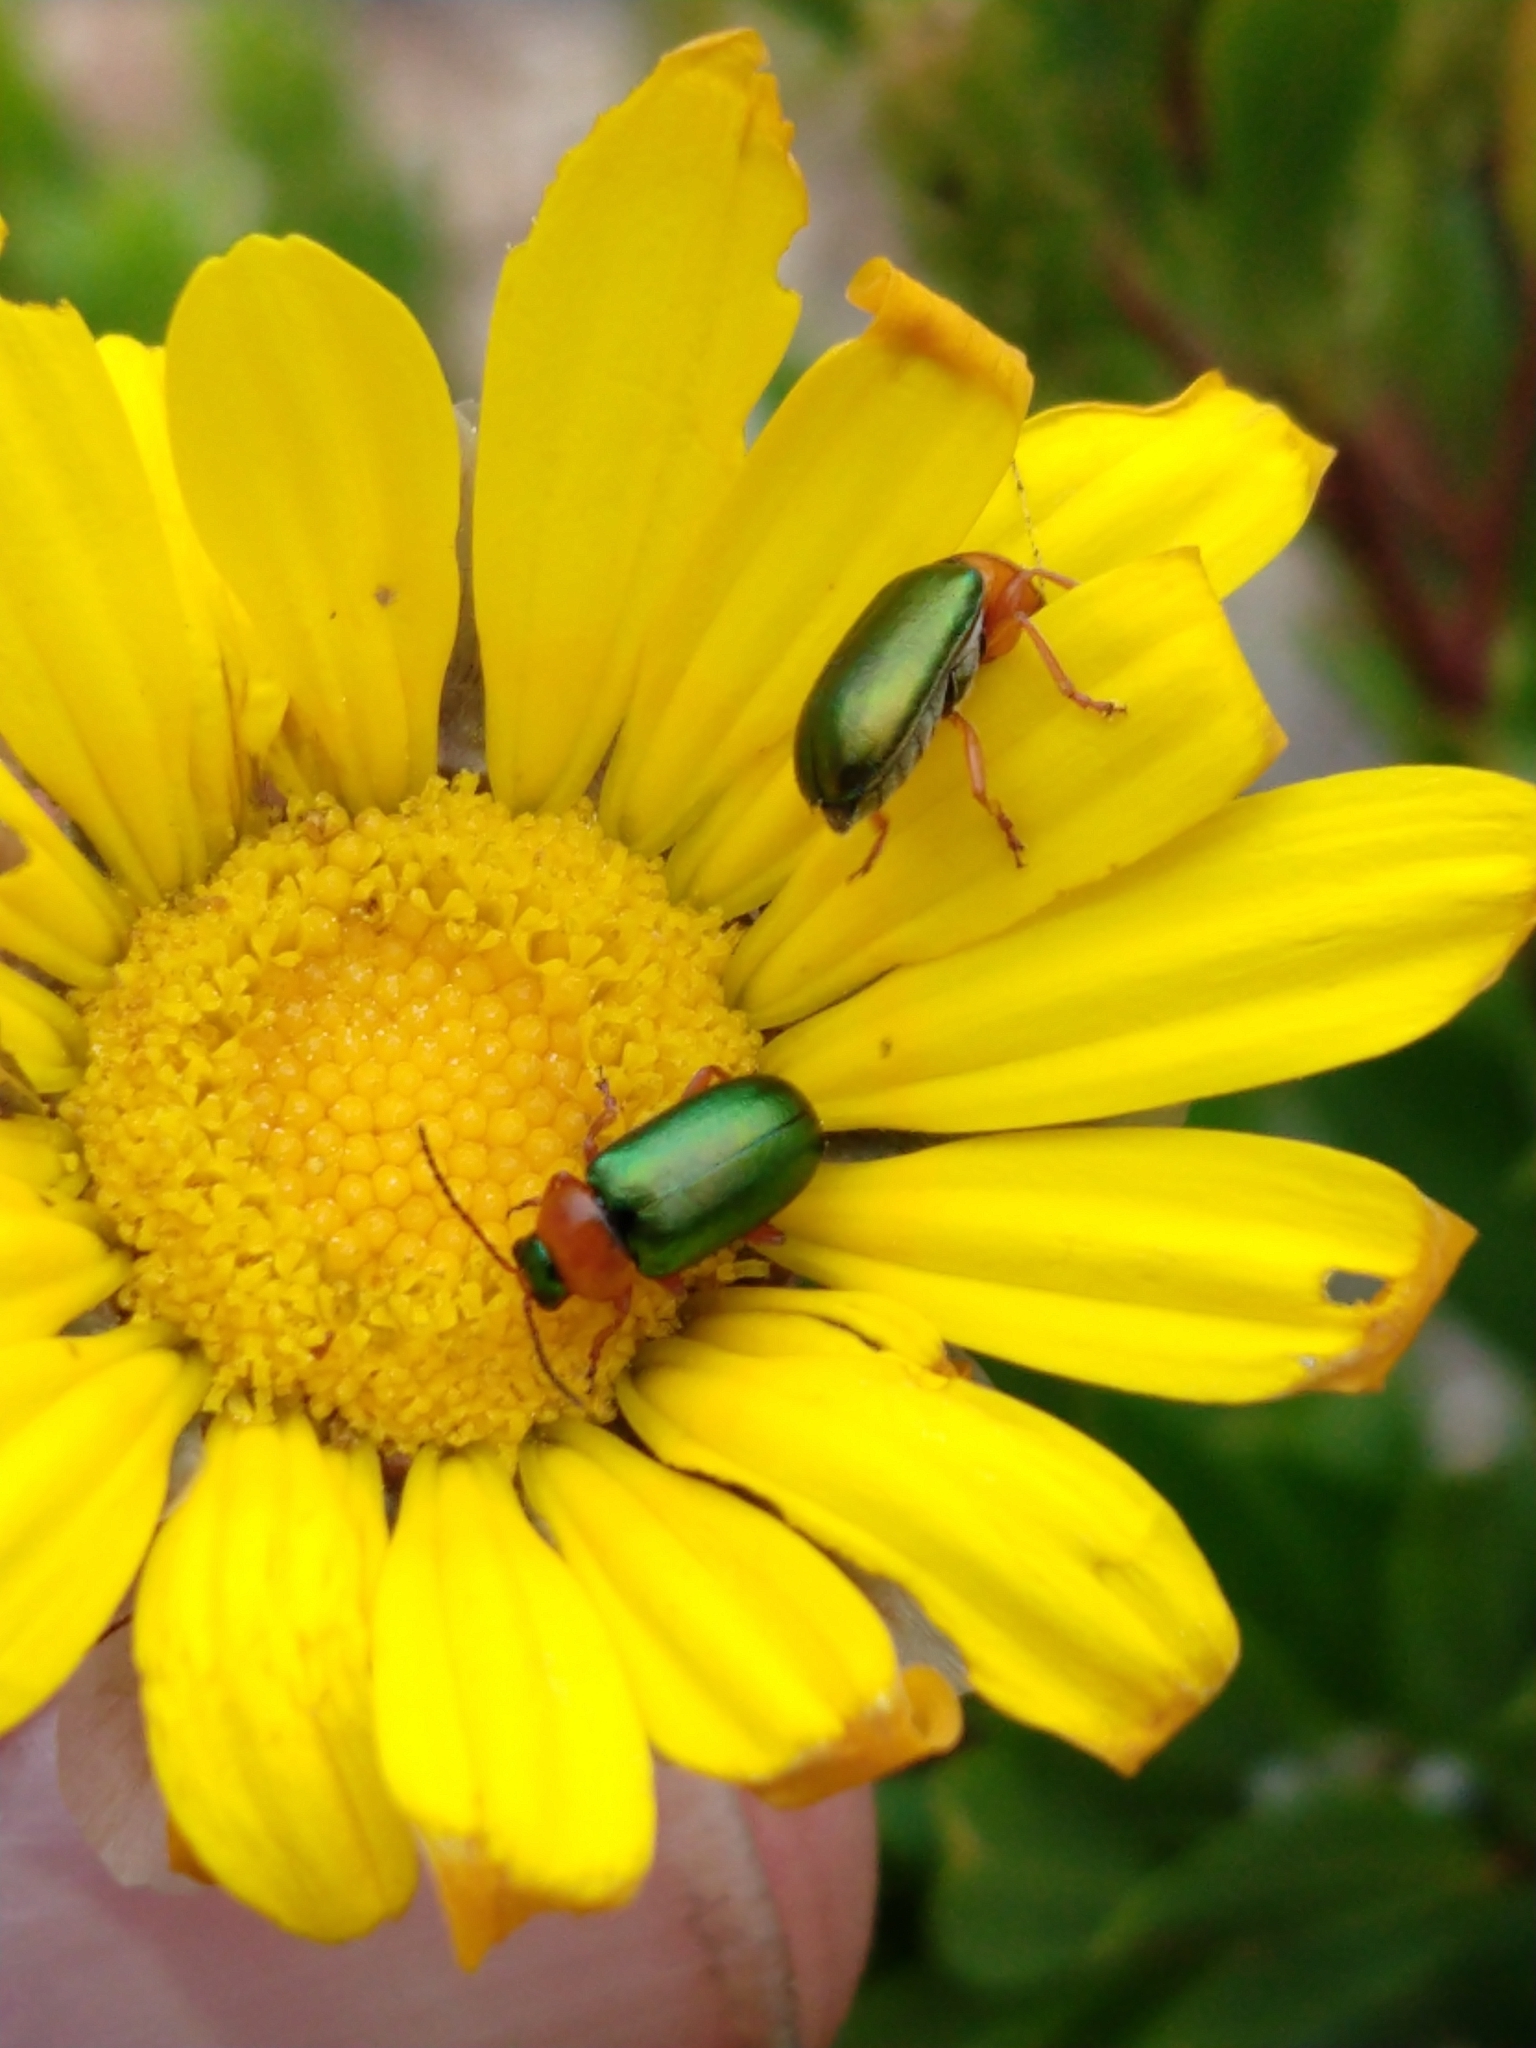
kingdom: Animalia
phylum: Arthropoda
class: Insecta
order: Coleoptera
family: Chrysomelidae
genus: Palaeophylia
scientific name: Palaeophylia
